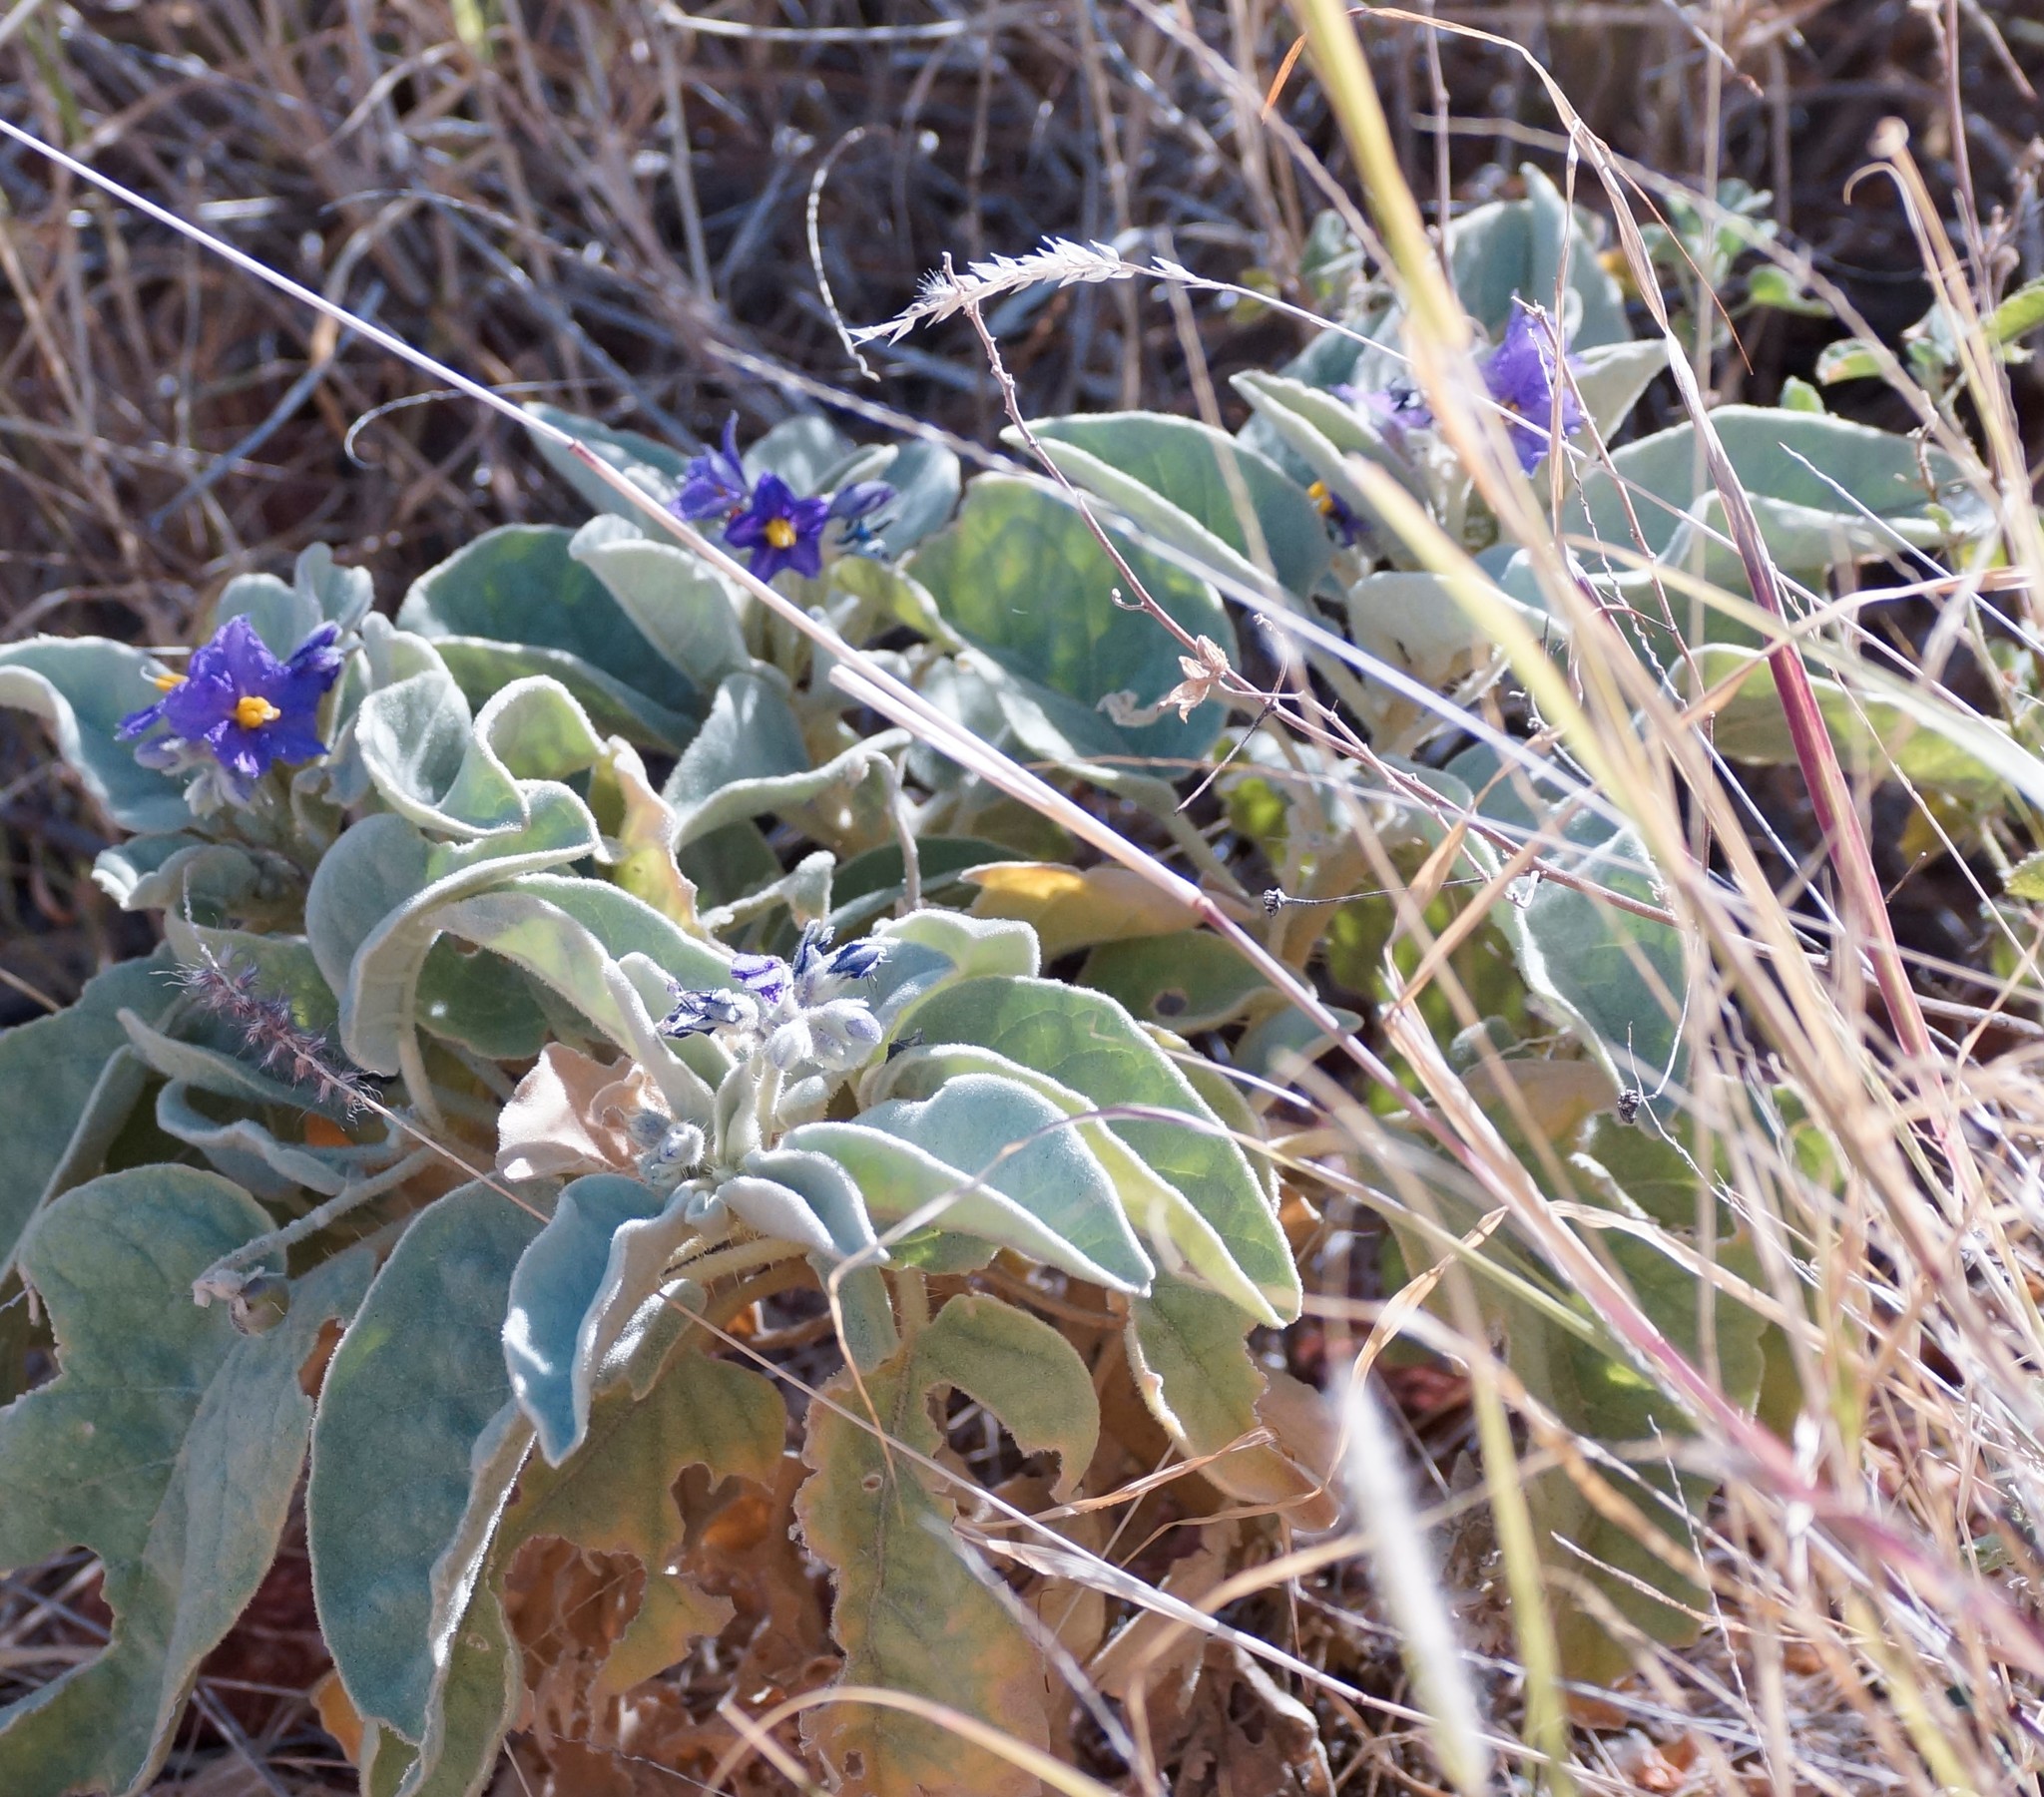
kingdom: Plantae
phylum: Tracheophyta
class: Magnoliopsida
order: Solanales
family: Solanaceae
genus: Solanum
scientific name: Solanum quadriloculatum
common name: Wild tomato
